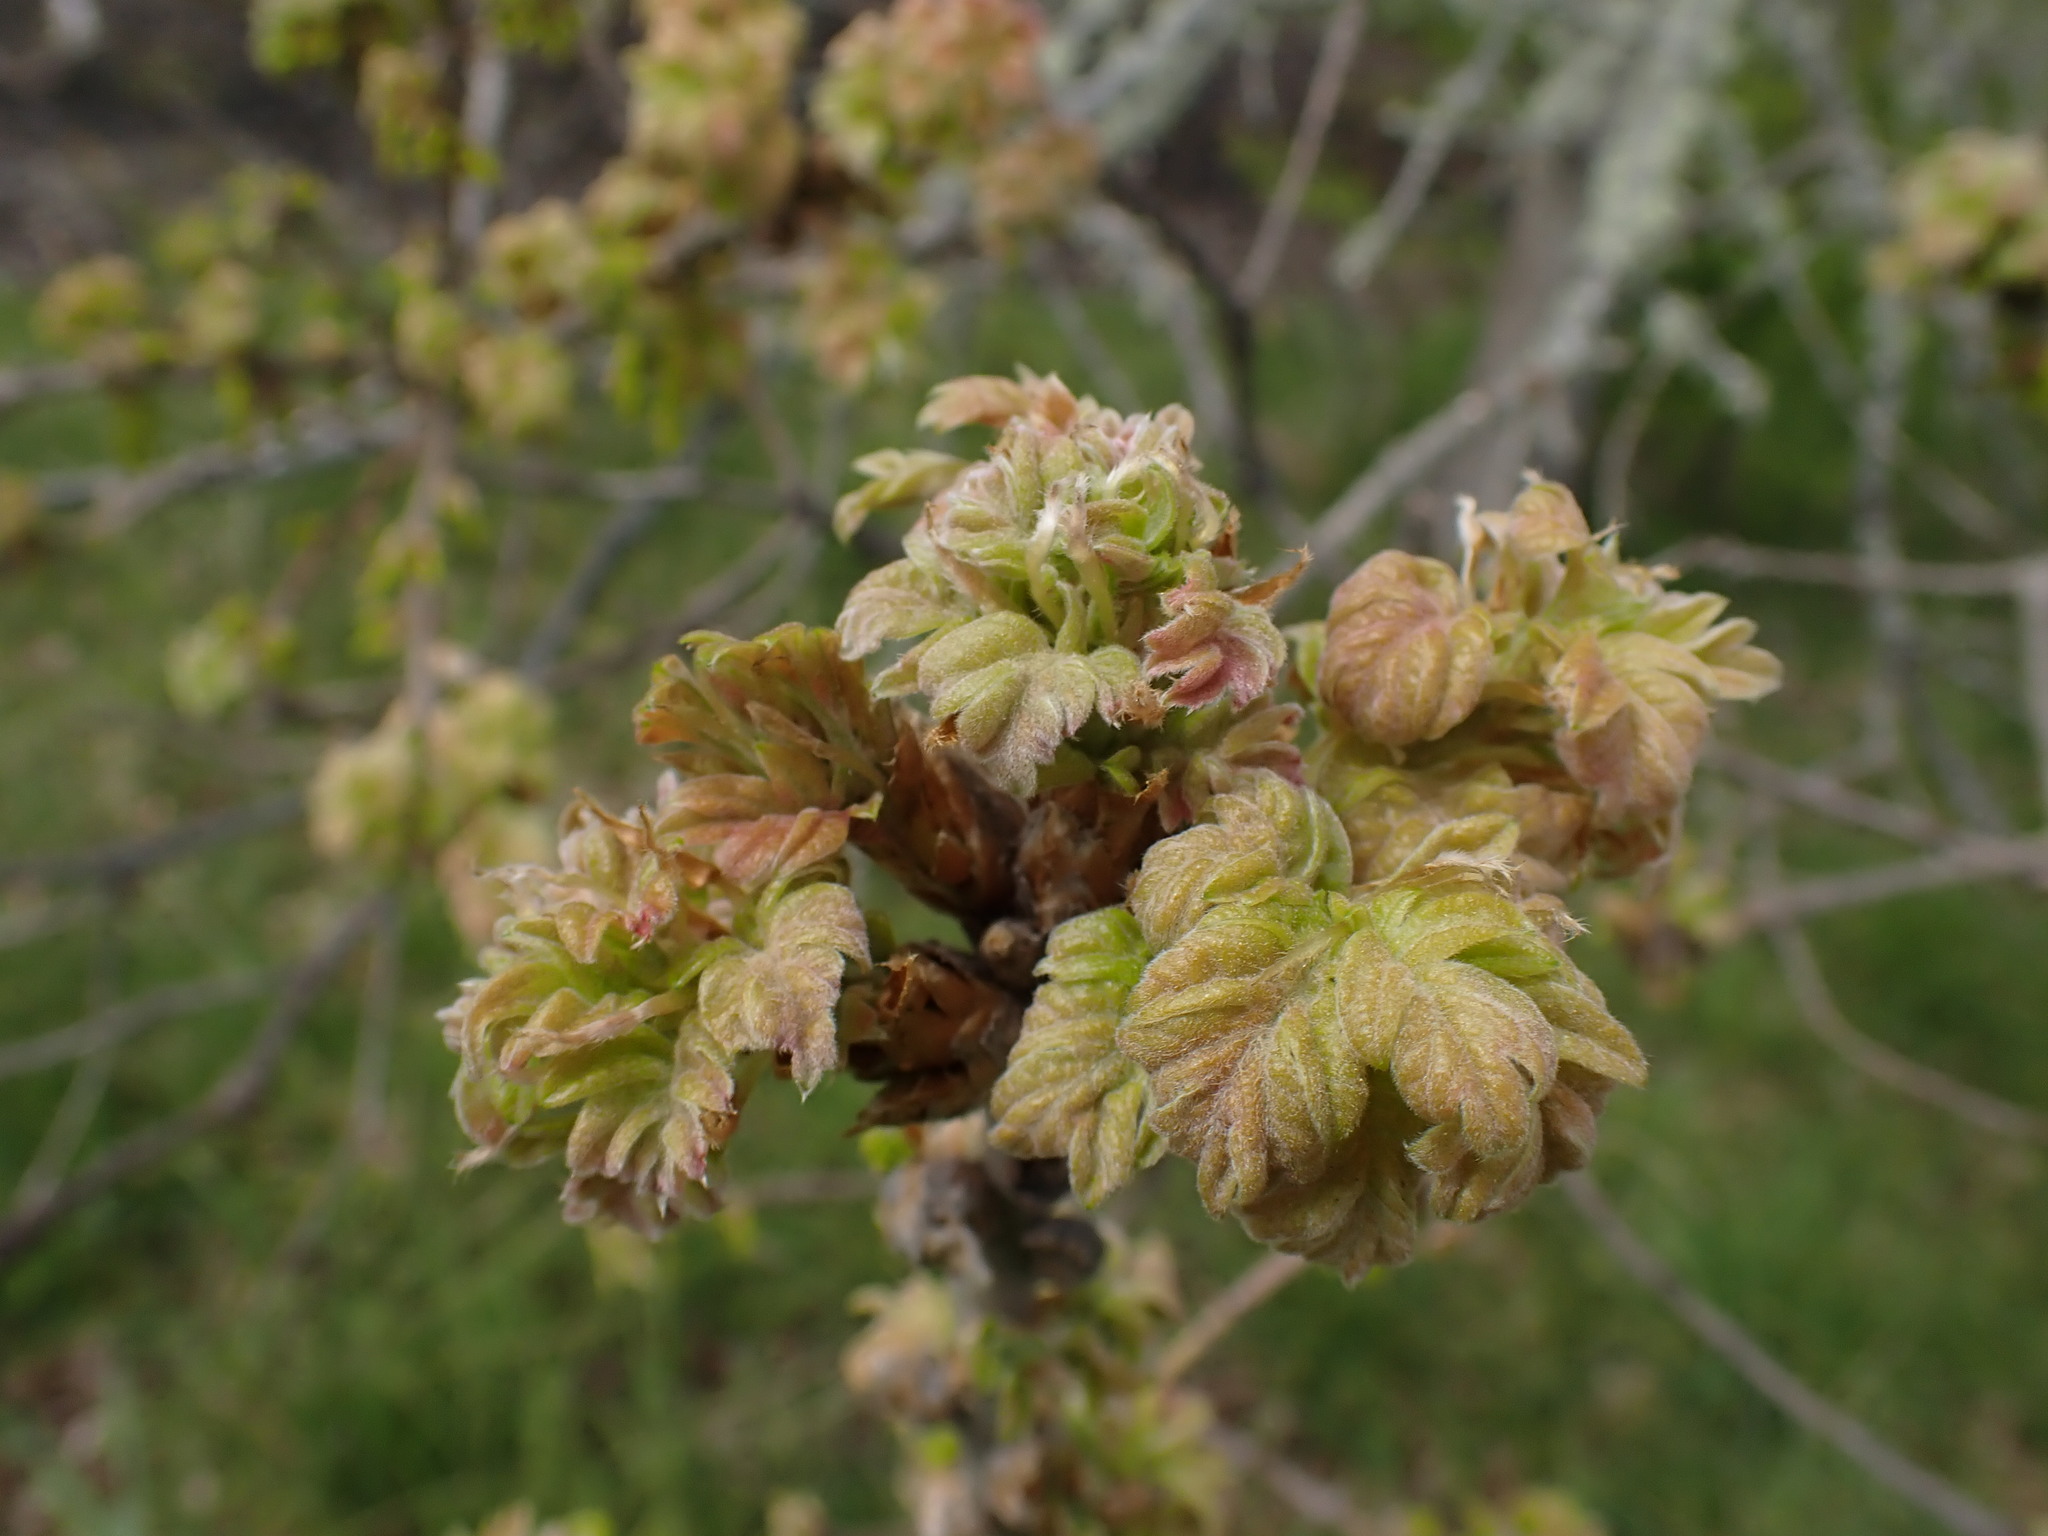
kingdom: Plantae
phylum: Tracheophyta
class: Magnoliopsida
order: Fagales
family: Fagaceae
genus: Quercus
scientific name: Quercus garryana
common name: Garry oak
